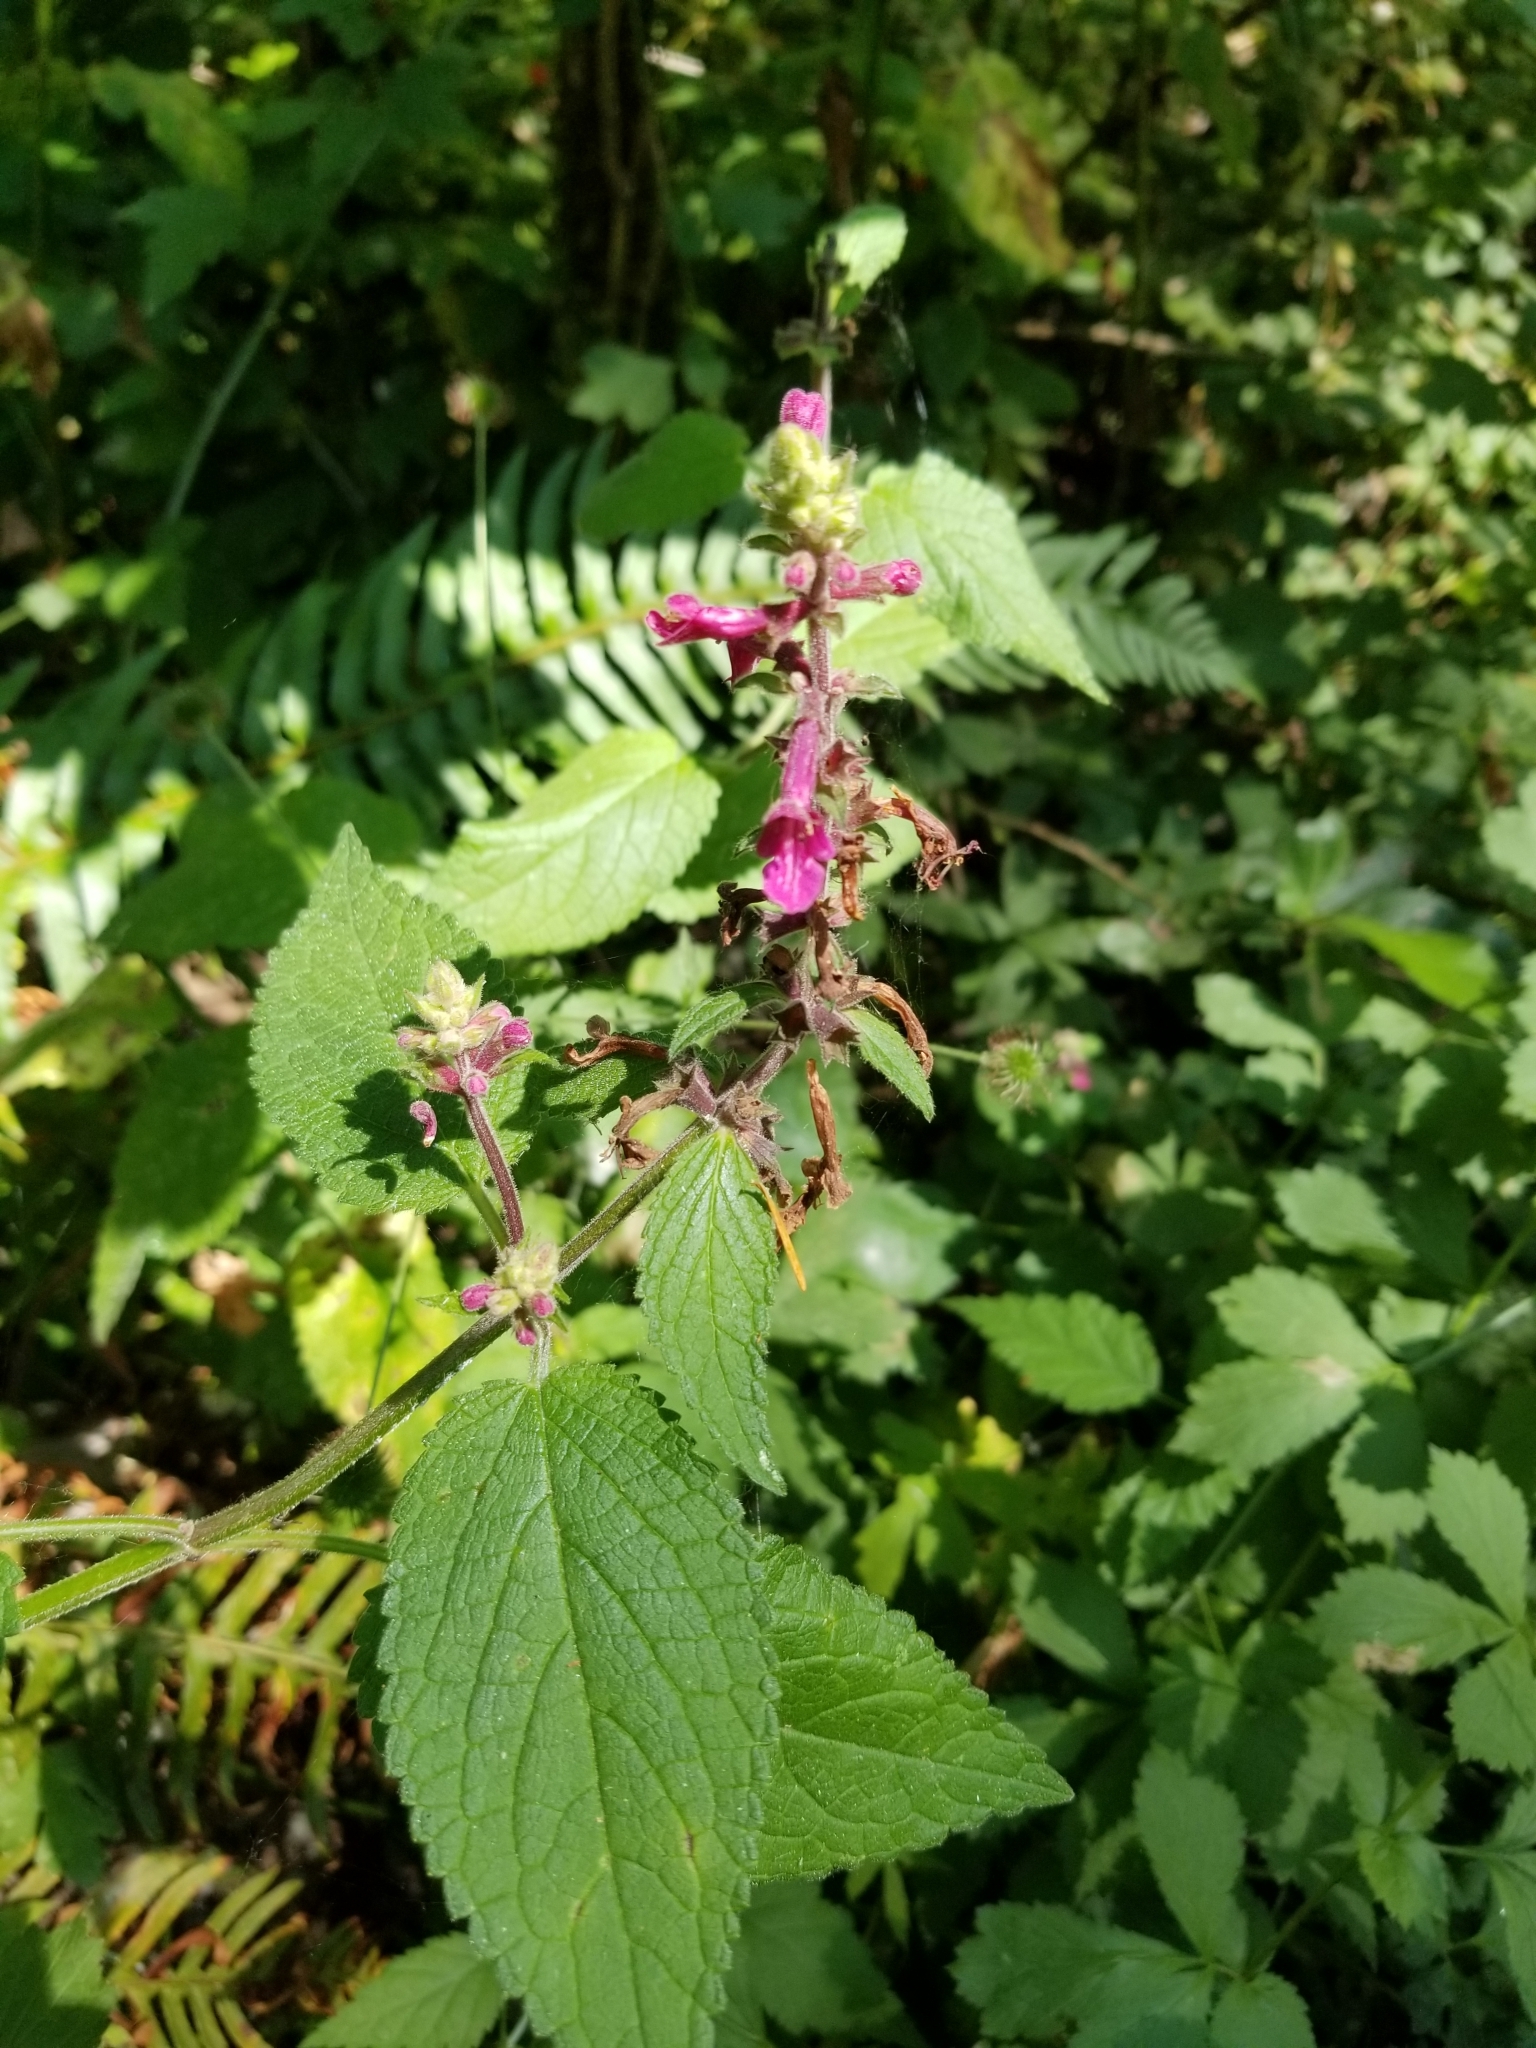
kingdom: Plantae
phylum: Tracheophyta
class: Magnoliopsida
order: Lamiales
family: Lamiaceae
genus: Stachys
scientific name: Stachys chamissonis
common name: Coastal hedge-nettle
